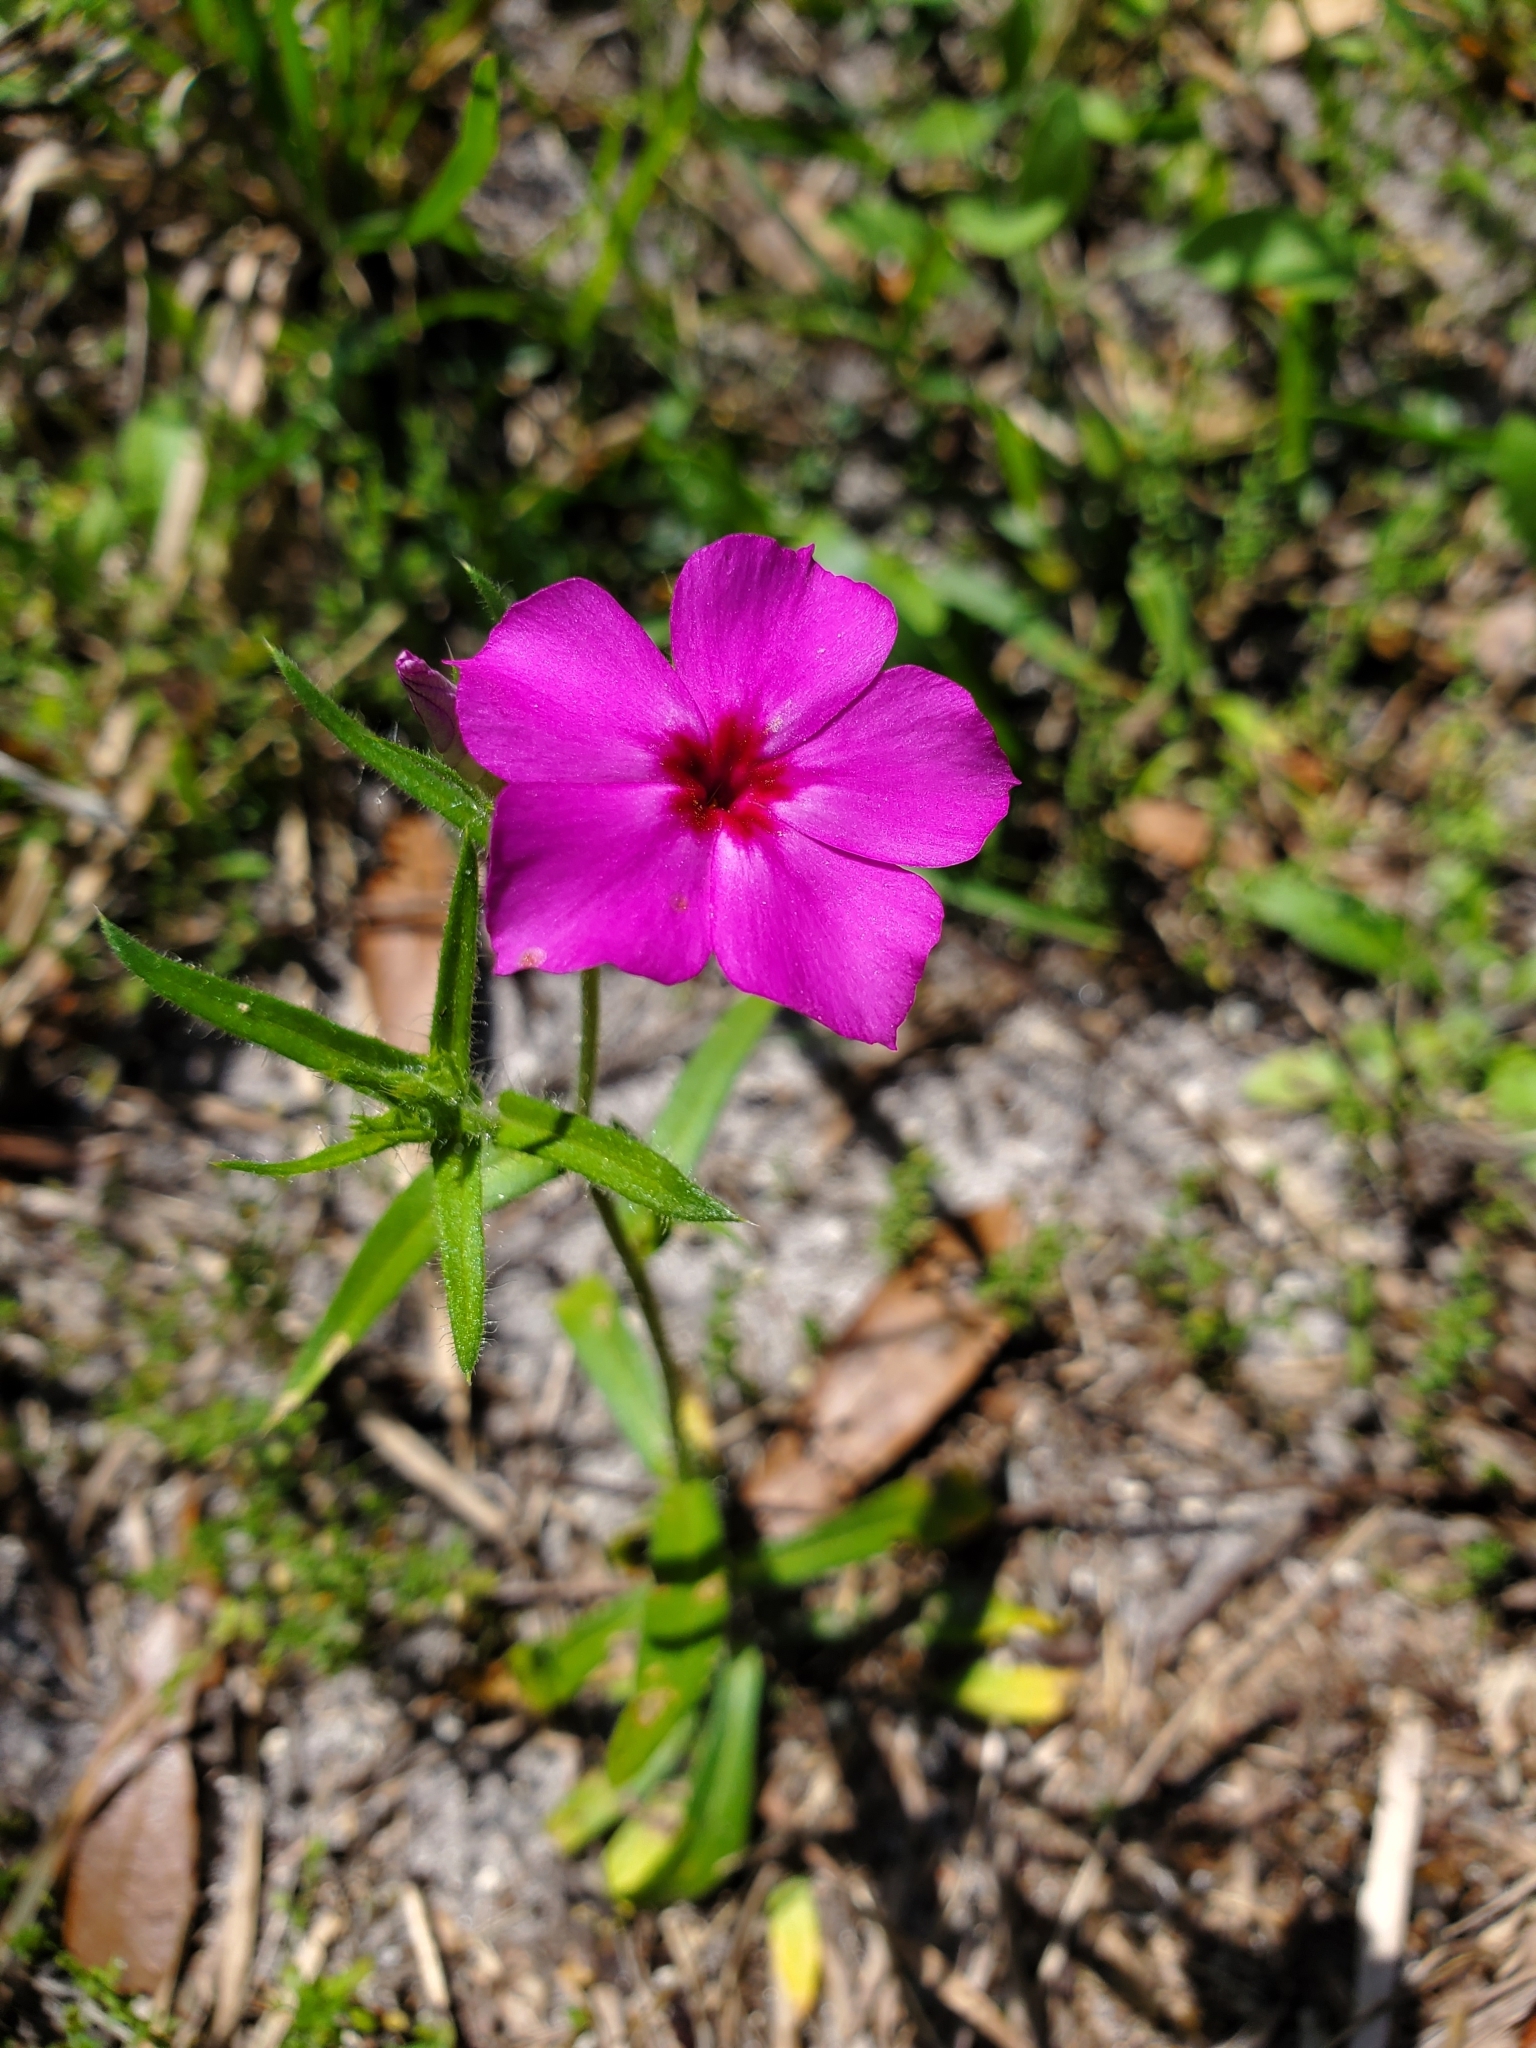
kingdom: Plantae
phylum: Tracheophyta
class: Magnoliopsida
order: Ericales
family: Polemoniaceae
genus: Phlox
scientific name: Phlox drummondii
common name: Drummond's phlox
